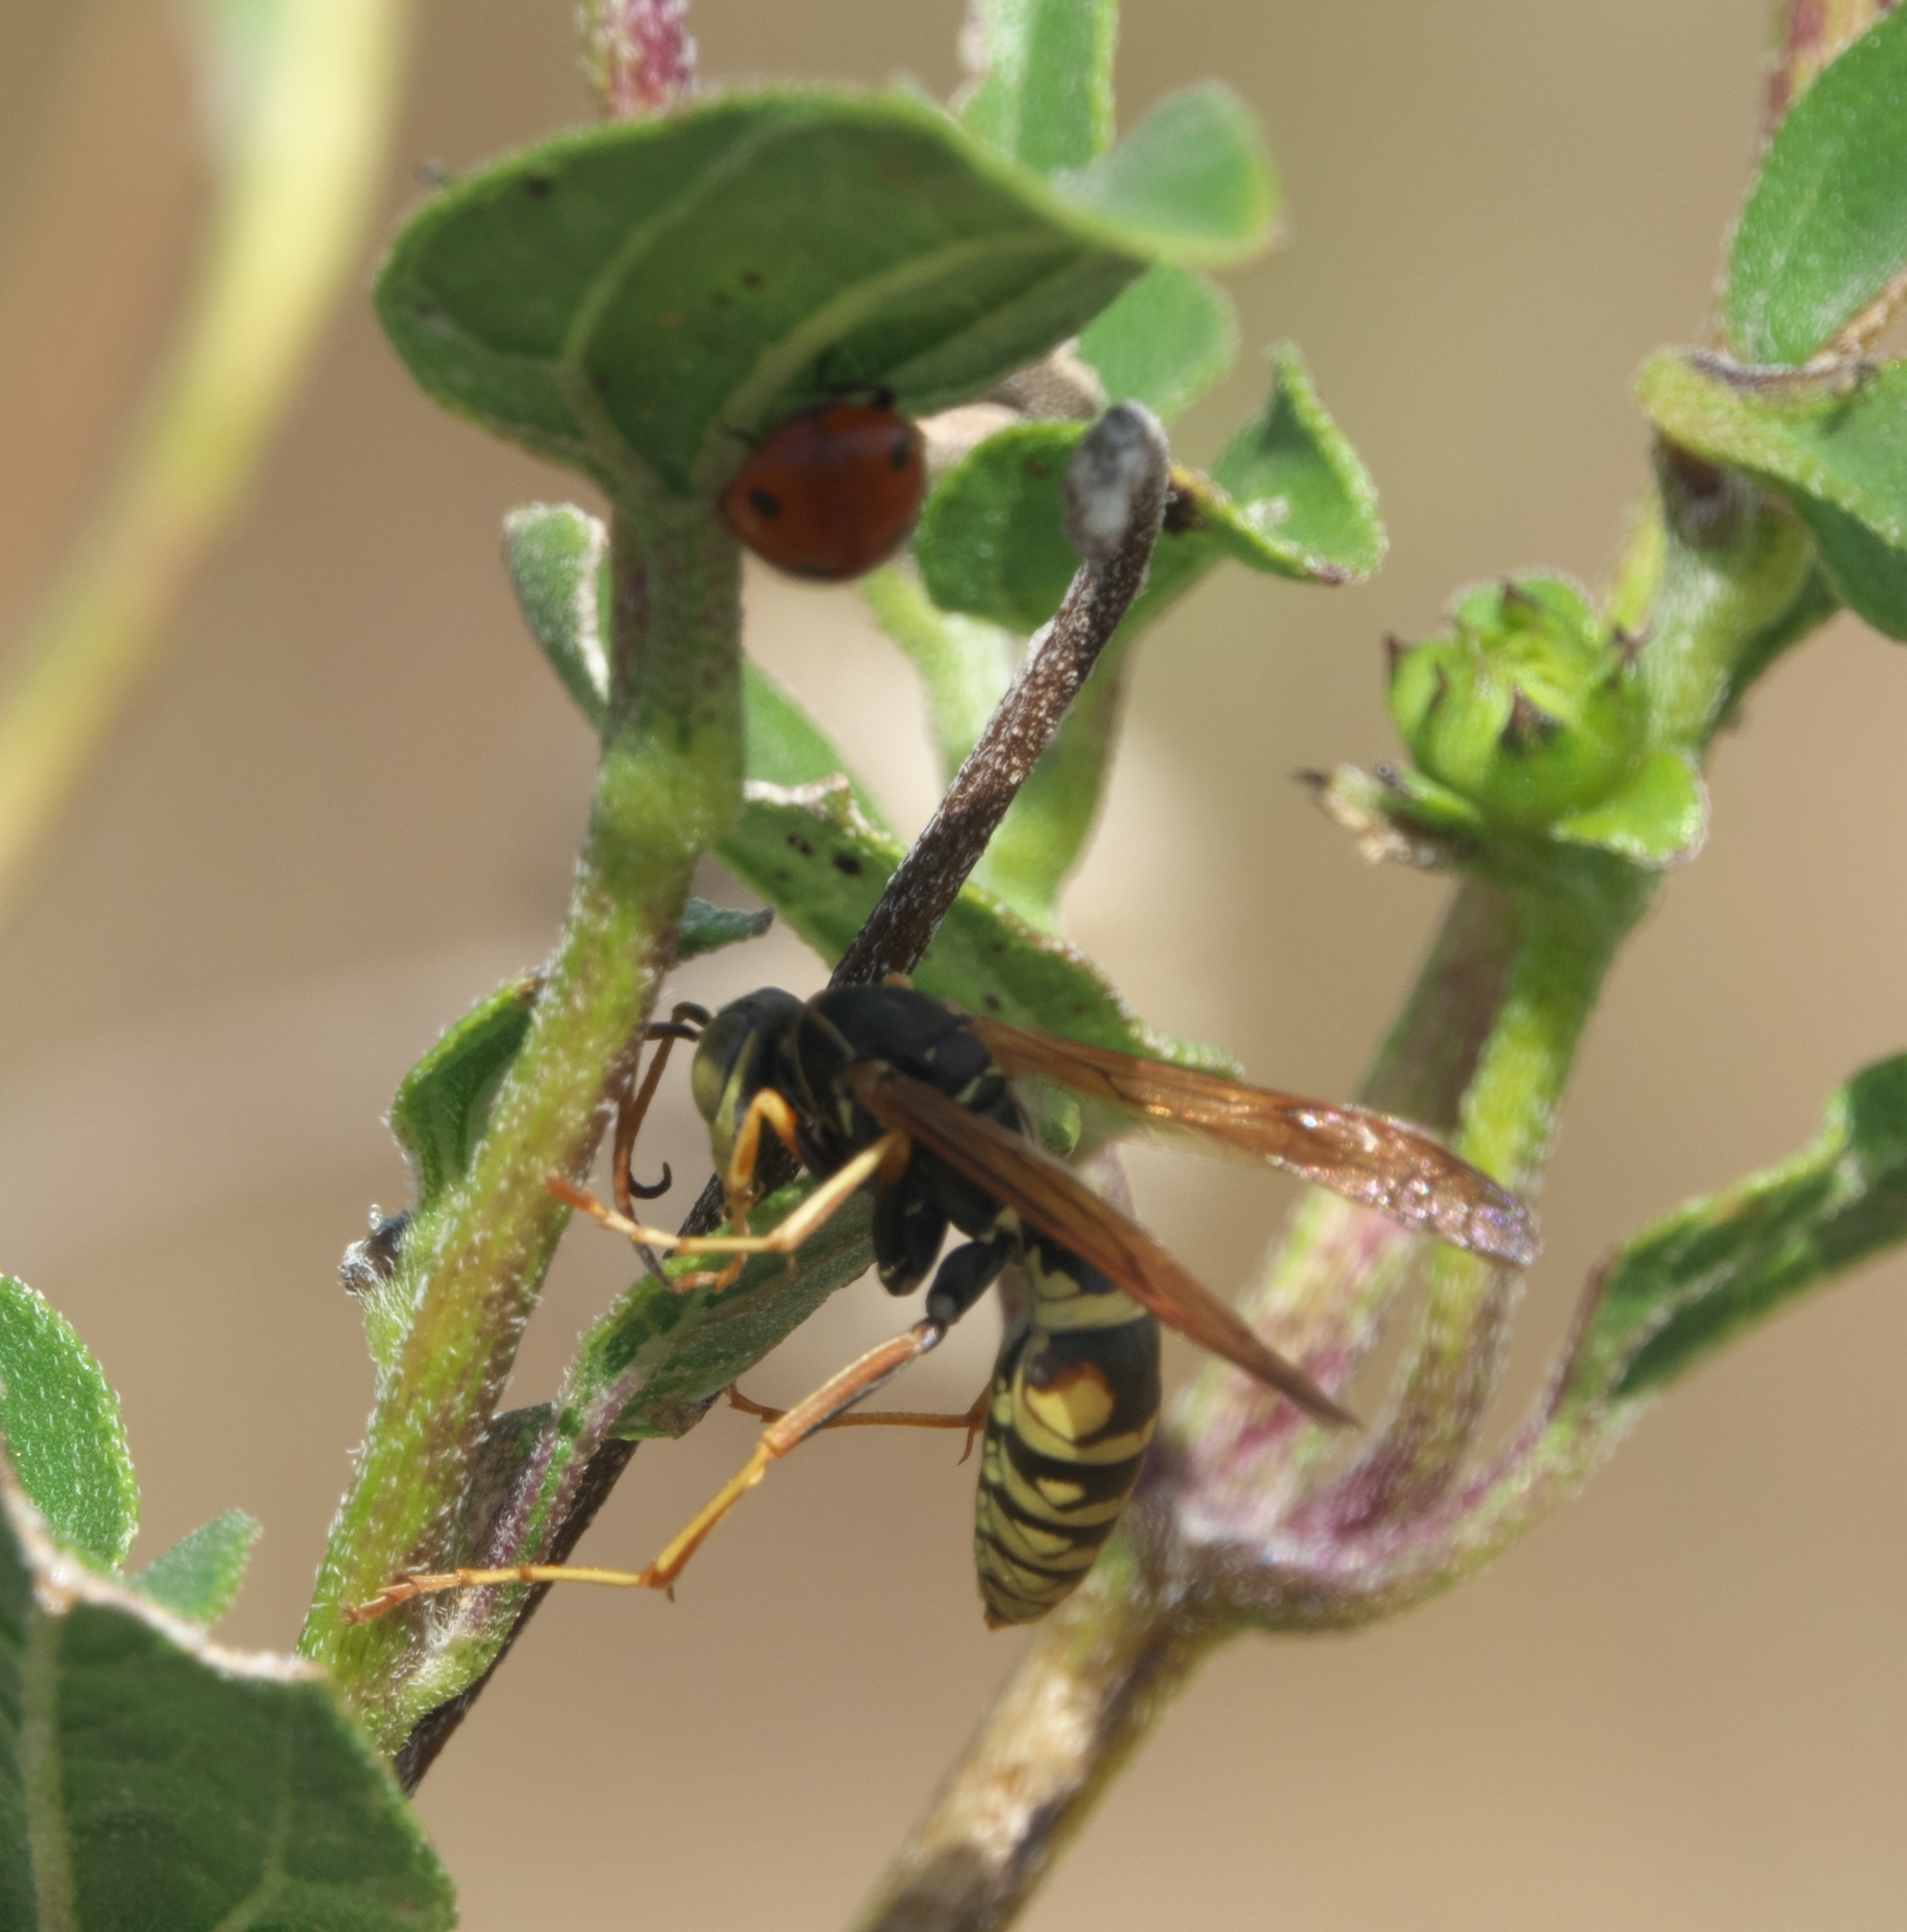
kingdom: Animalia
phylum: Arthropoda
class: Insecta
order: Hymenoptera
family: Eumenidae
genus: Polistes
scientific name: Polistes aurifer
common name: Paper wasp
